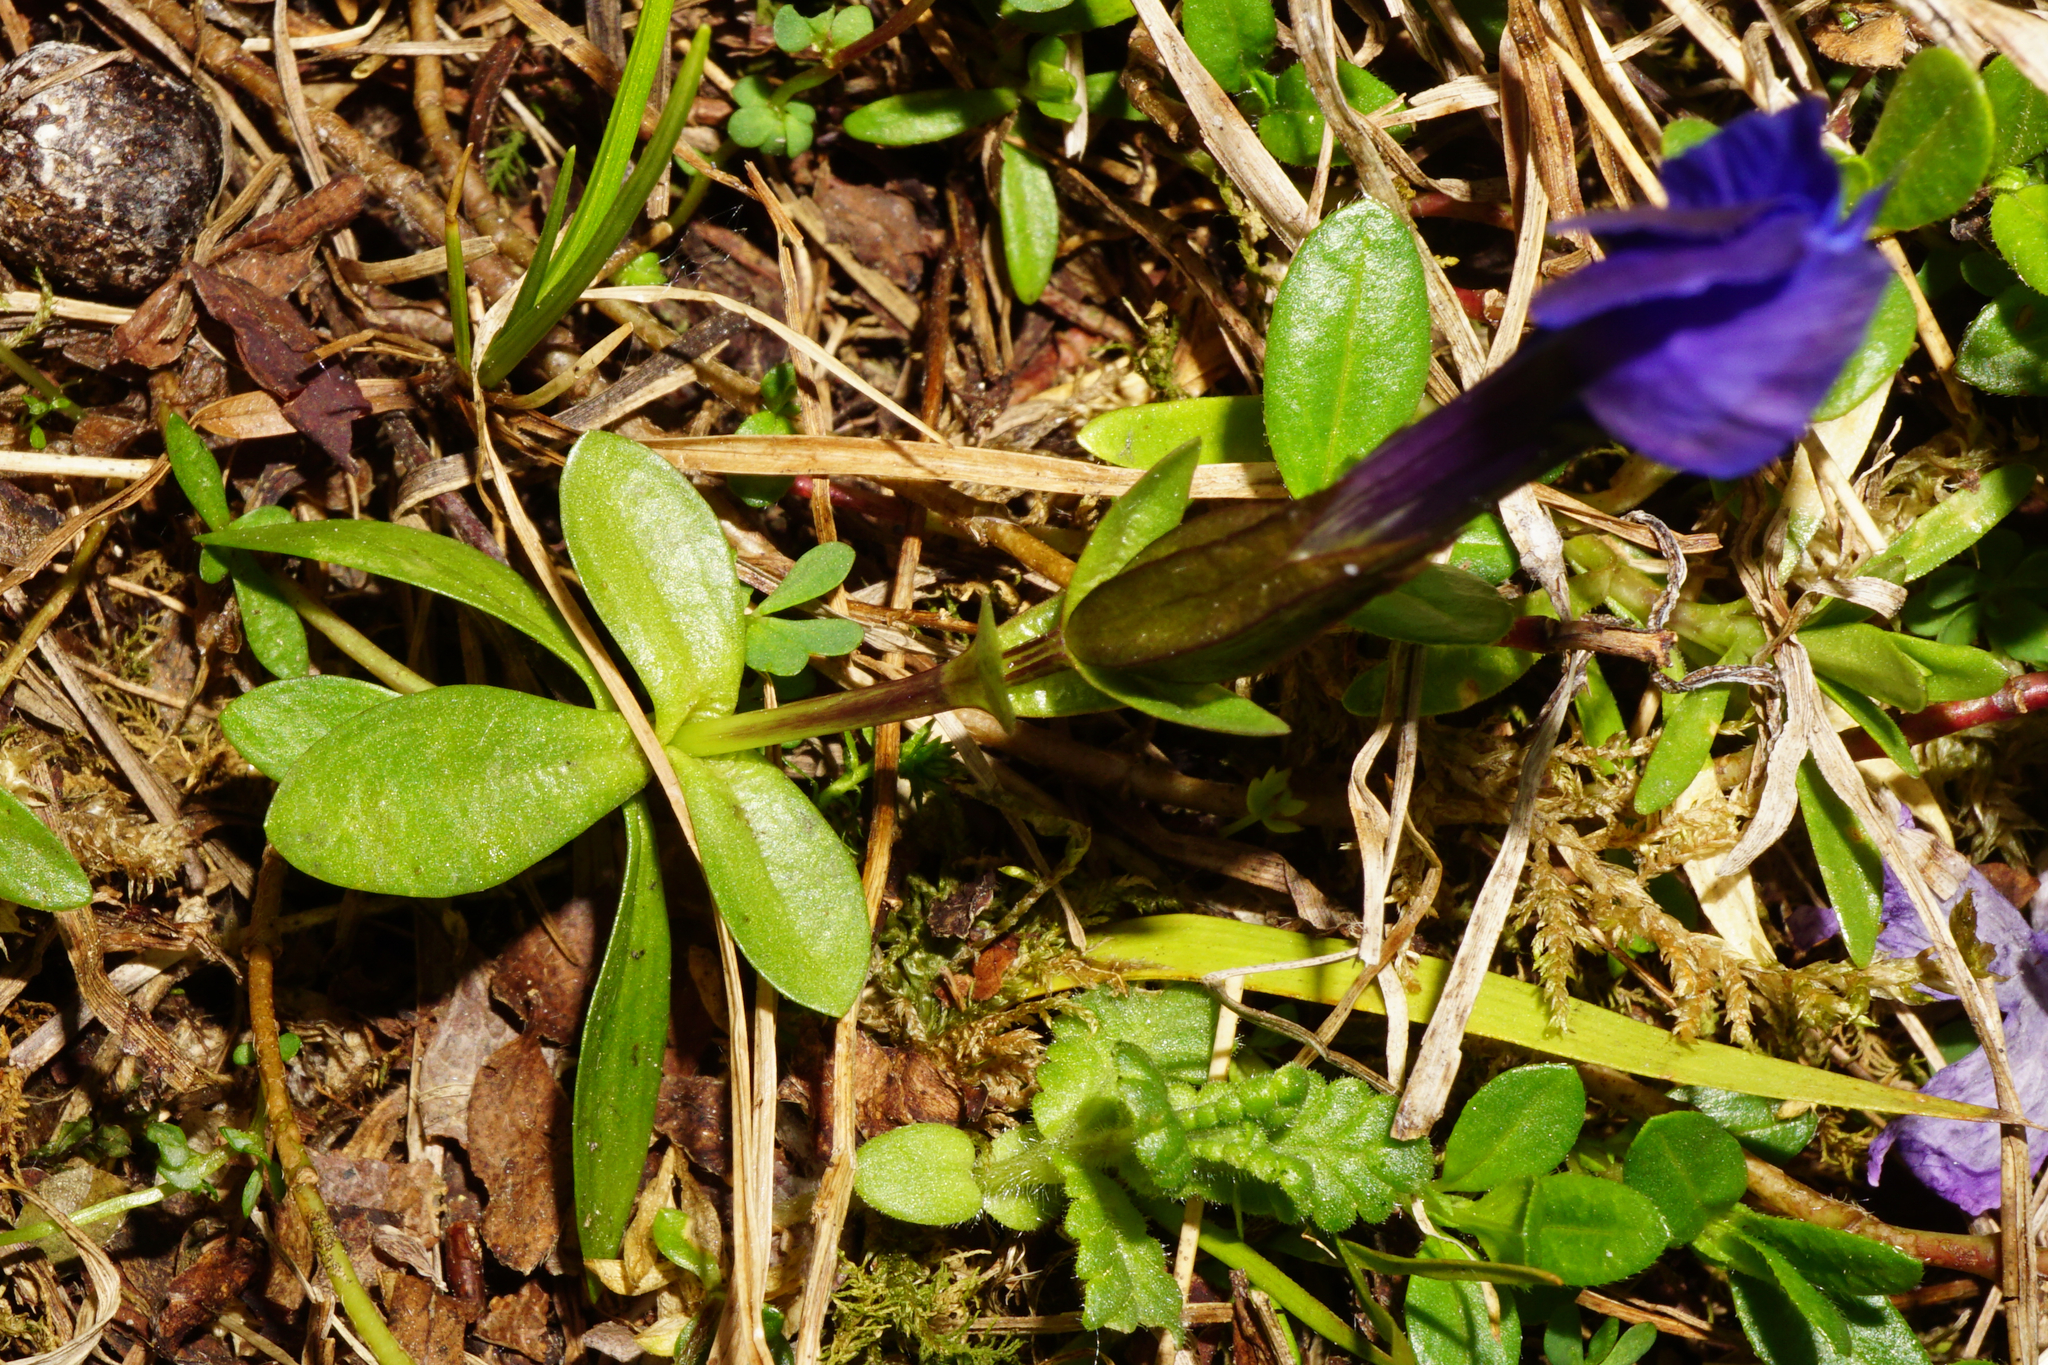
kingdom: Plantae
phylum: Tracheophyta
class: Magnoliopsida
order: Gentianales
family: Gentianaceae
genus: Gentiana
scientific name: Gentiana verna
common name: Spring gentian
